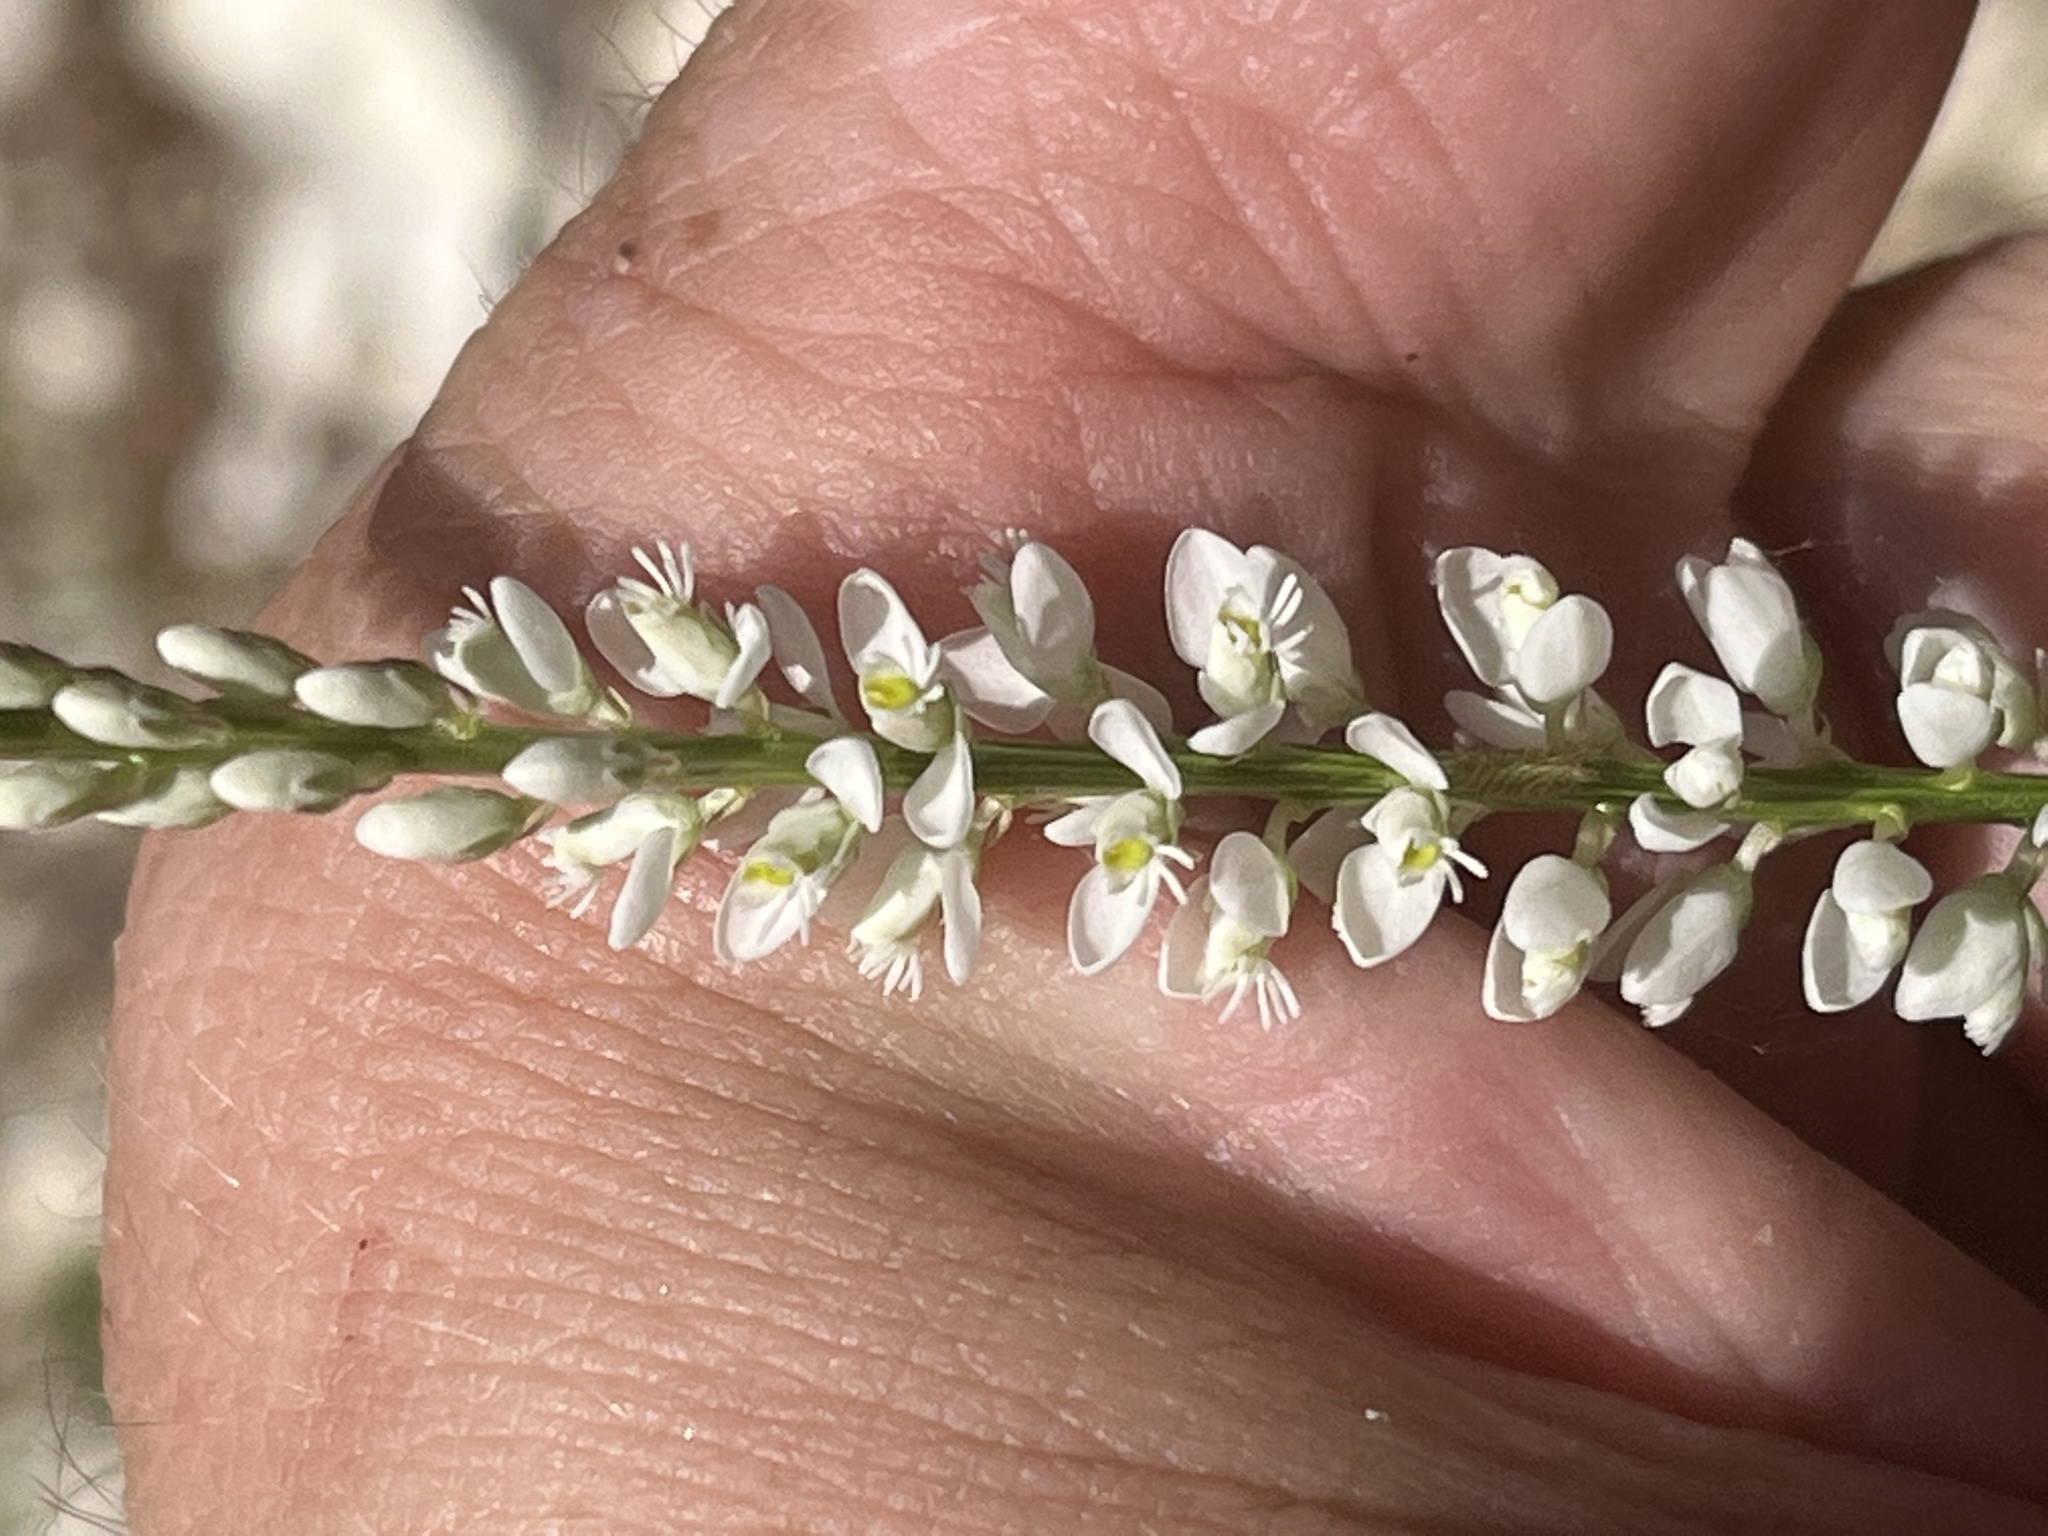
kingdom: Plantae
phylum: Tracheophyta
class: Magnoliopsida
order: Fabales
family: Polygalaceae
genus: Polygala
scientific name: Polygala boykinii
